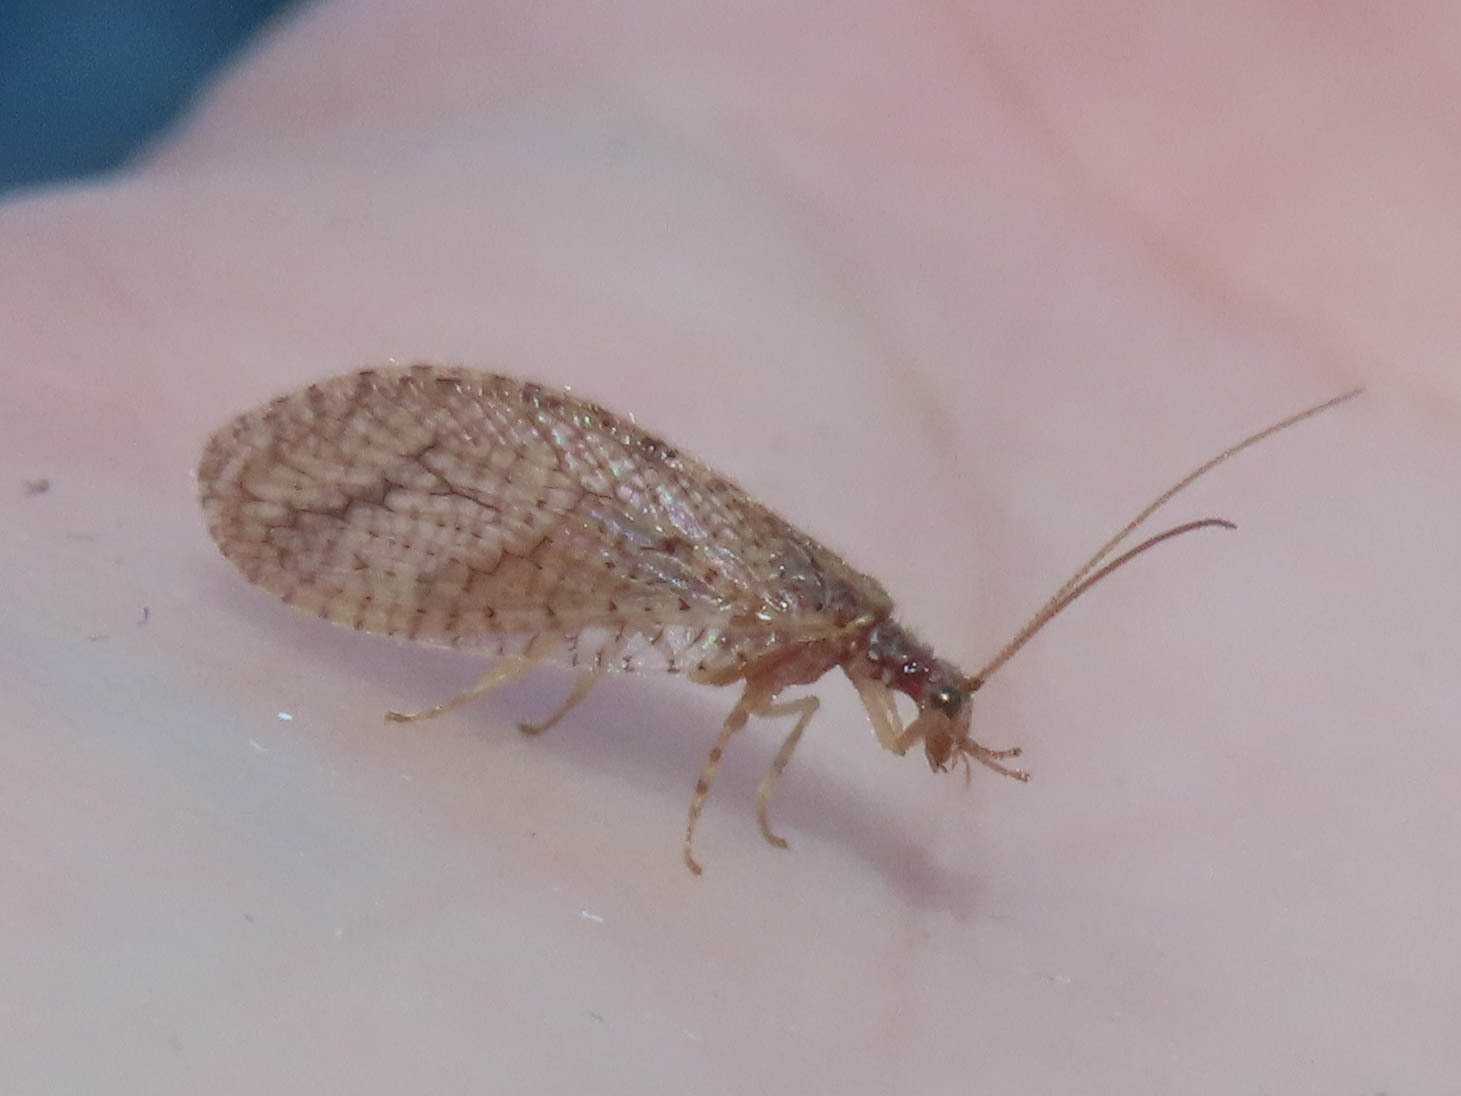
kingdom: Animalia
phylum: Arthropoda
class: Insecta
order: Neuroptera
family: Hemerobiidae
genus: Micromus
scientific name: Micromus posticus
